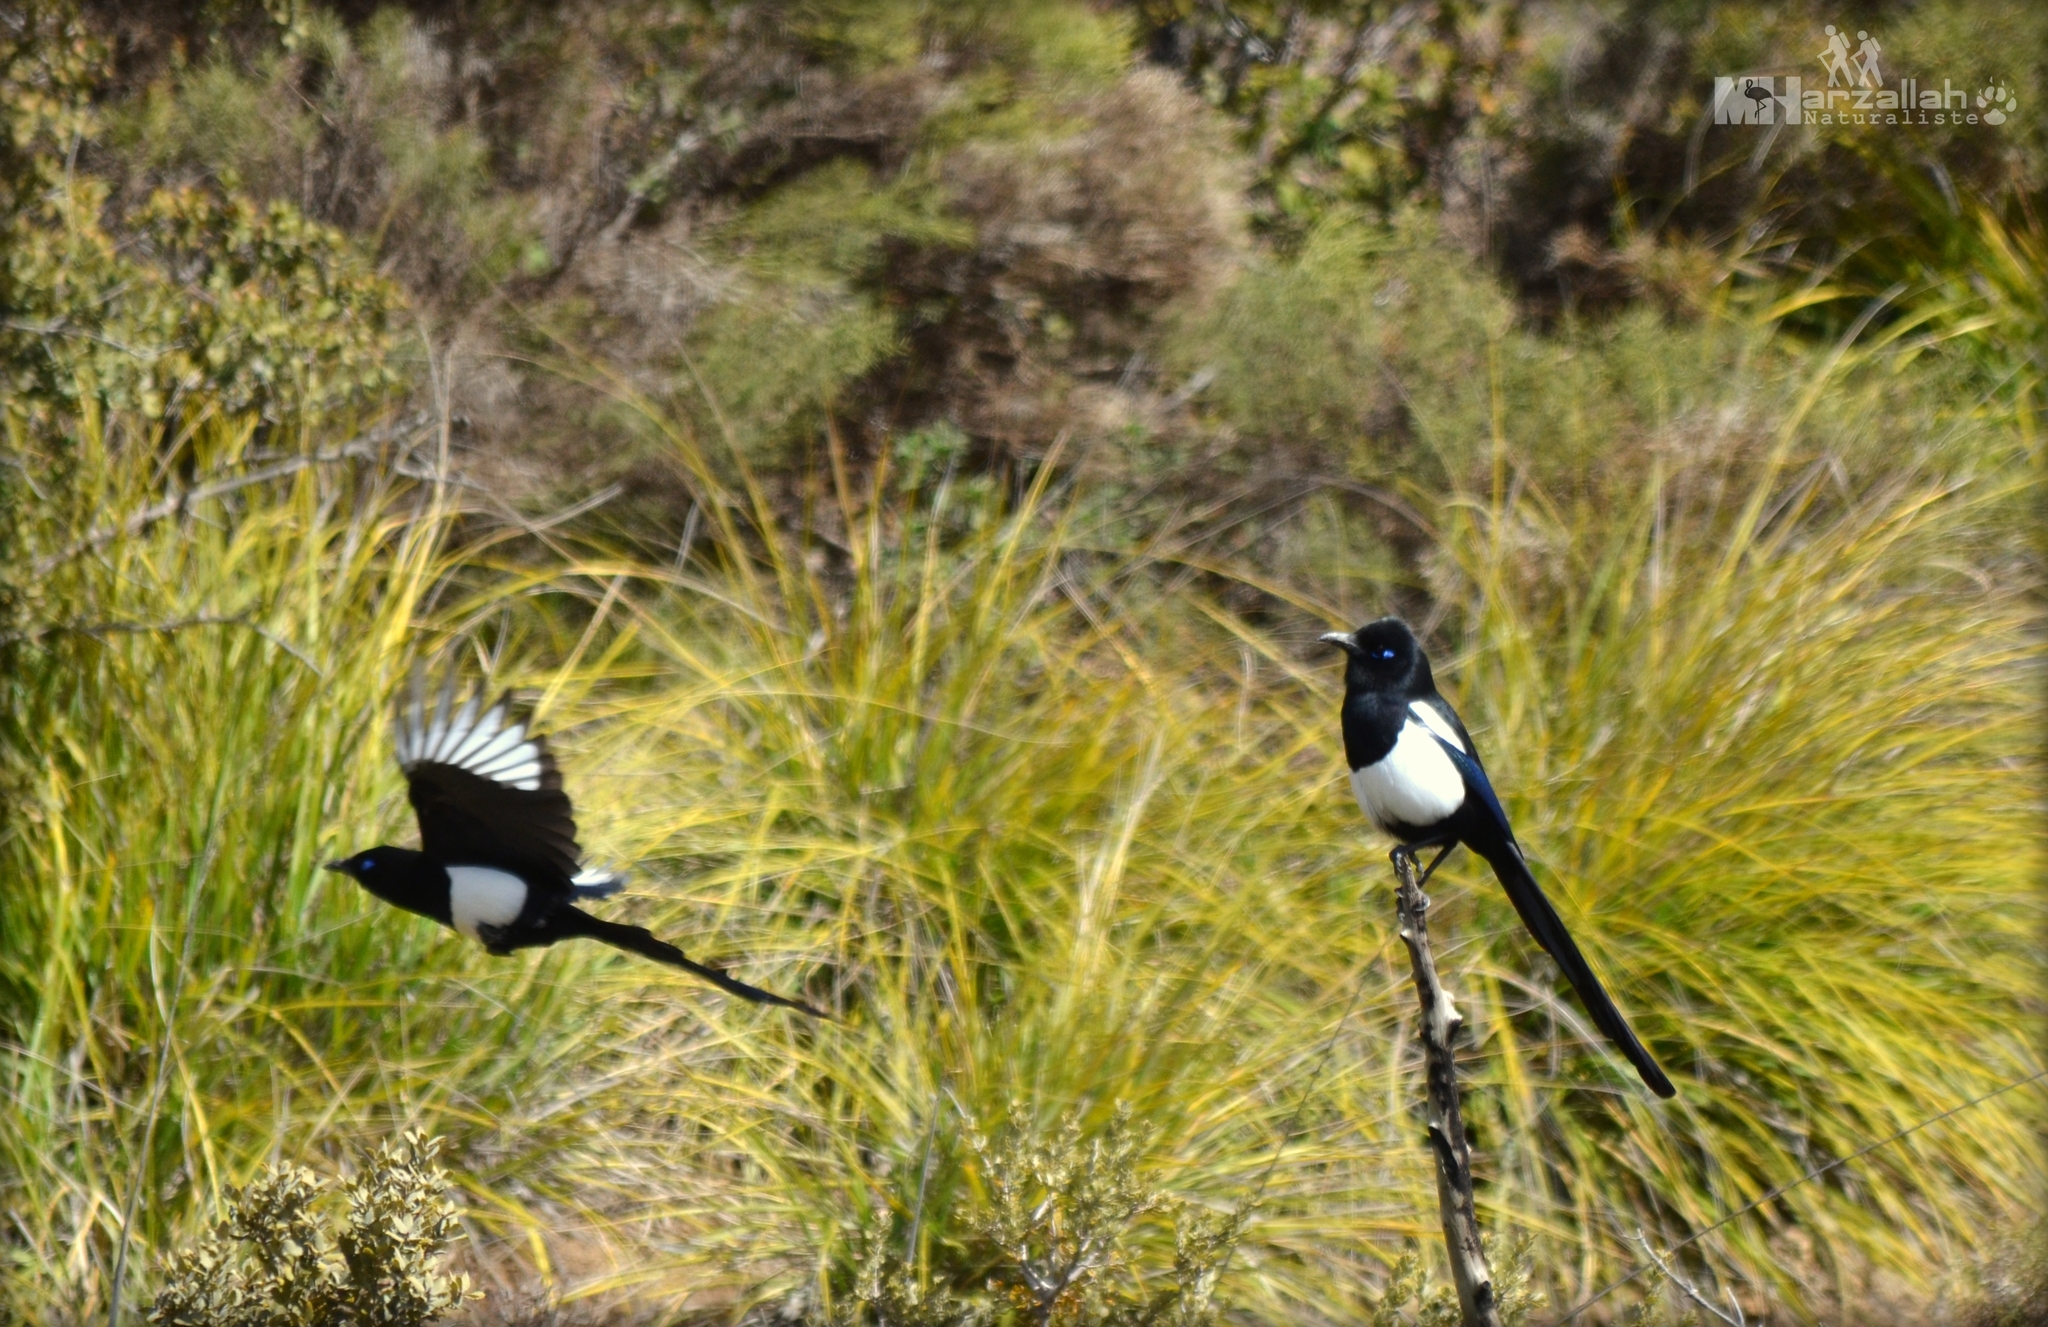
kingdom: Animalia
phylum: Chordata
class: Aves
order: Passeriformes
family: Corvidae
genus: Pica
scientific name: Pica mauritanica
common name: Maghreb magpie
